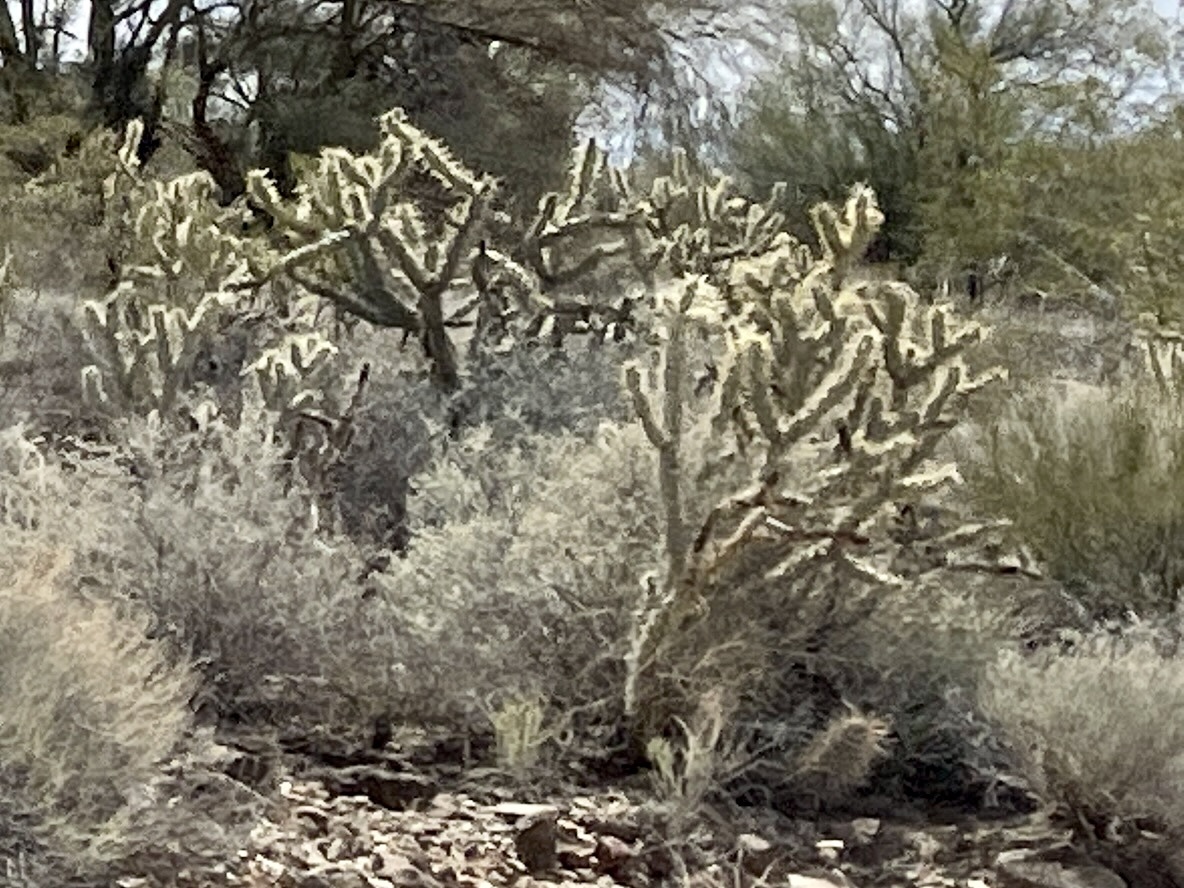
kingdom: Plantae
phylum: Tracheophyta
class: Magnoliopsida
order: Caryophyllales
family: Cactaceae
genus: Cylindropuntia
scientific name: Cylindropuntia acanthocarpa
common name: Buckhorn cholla
